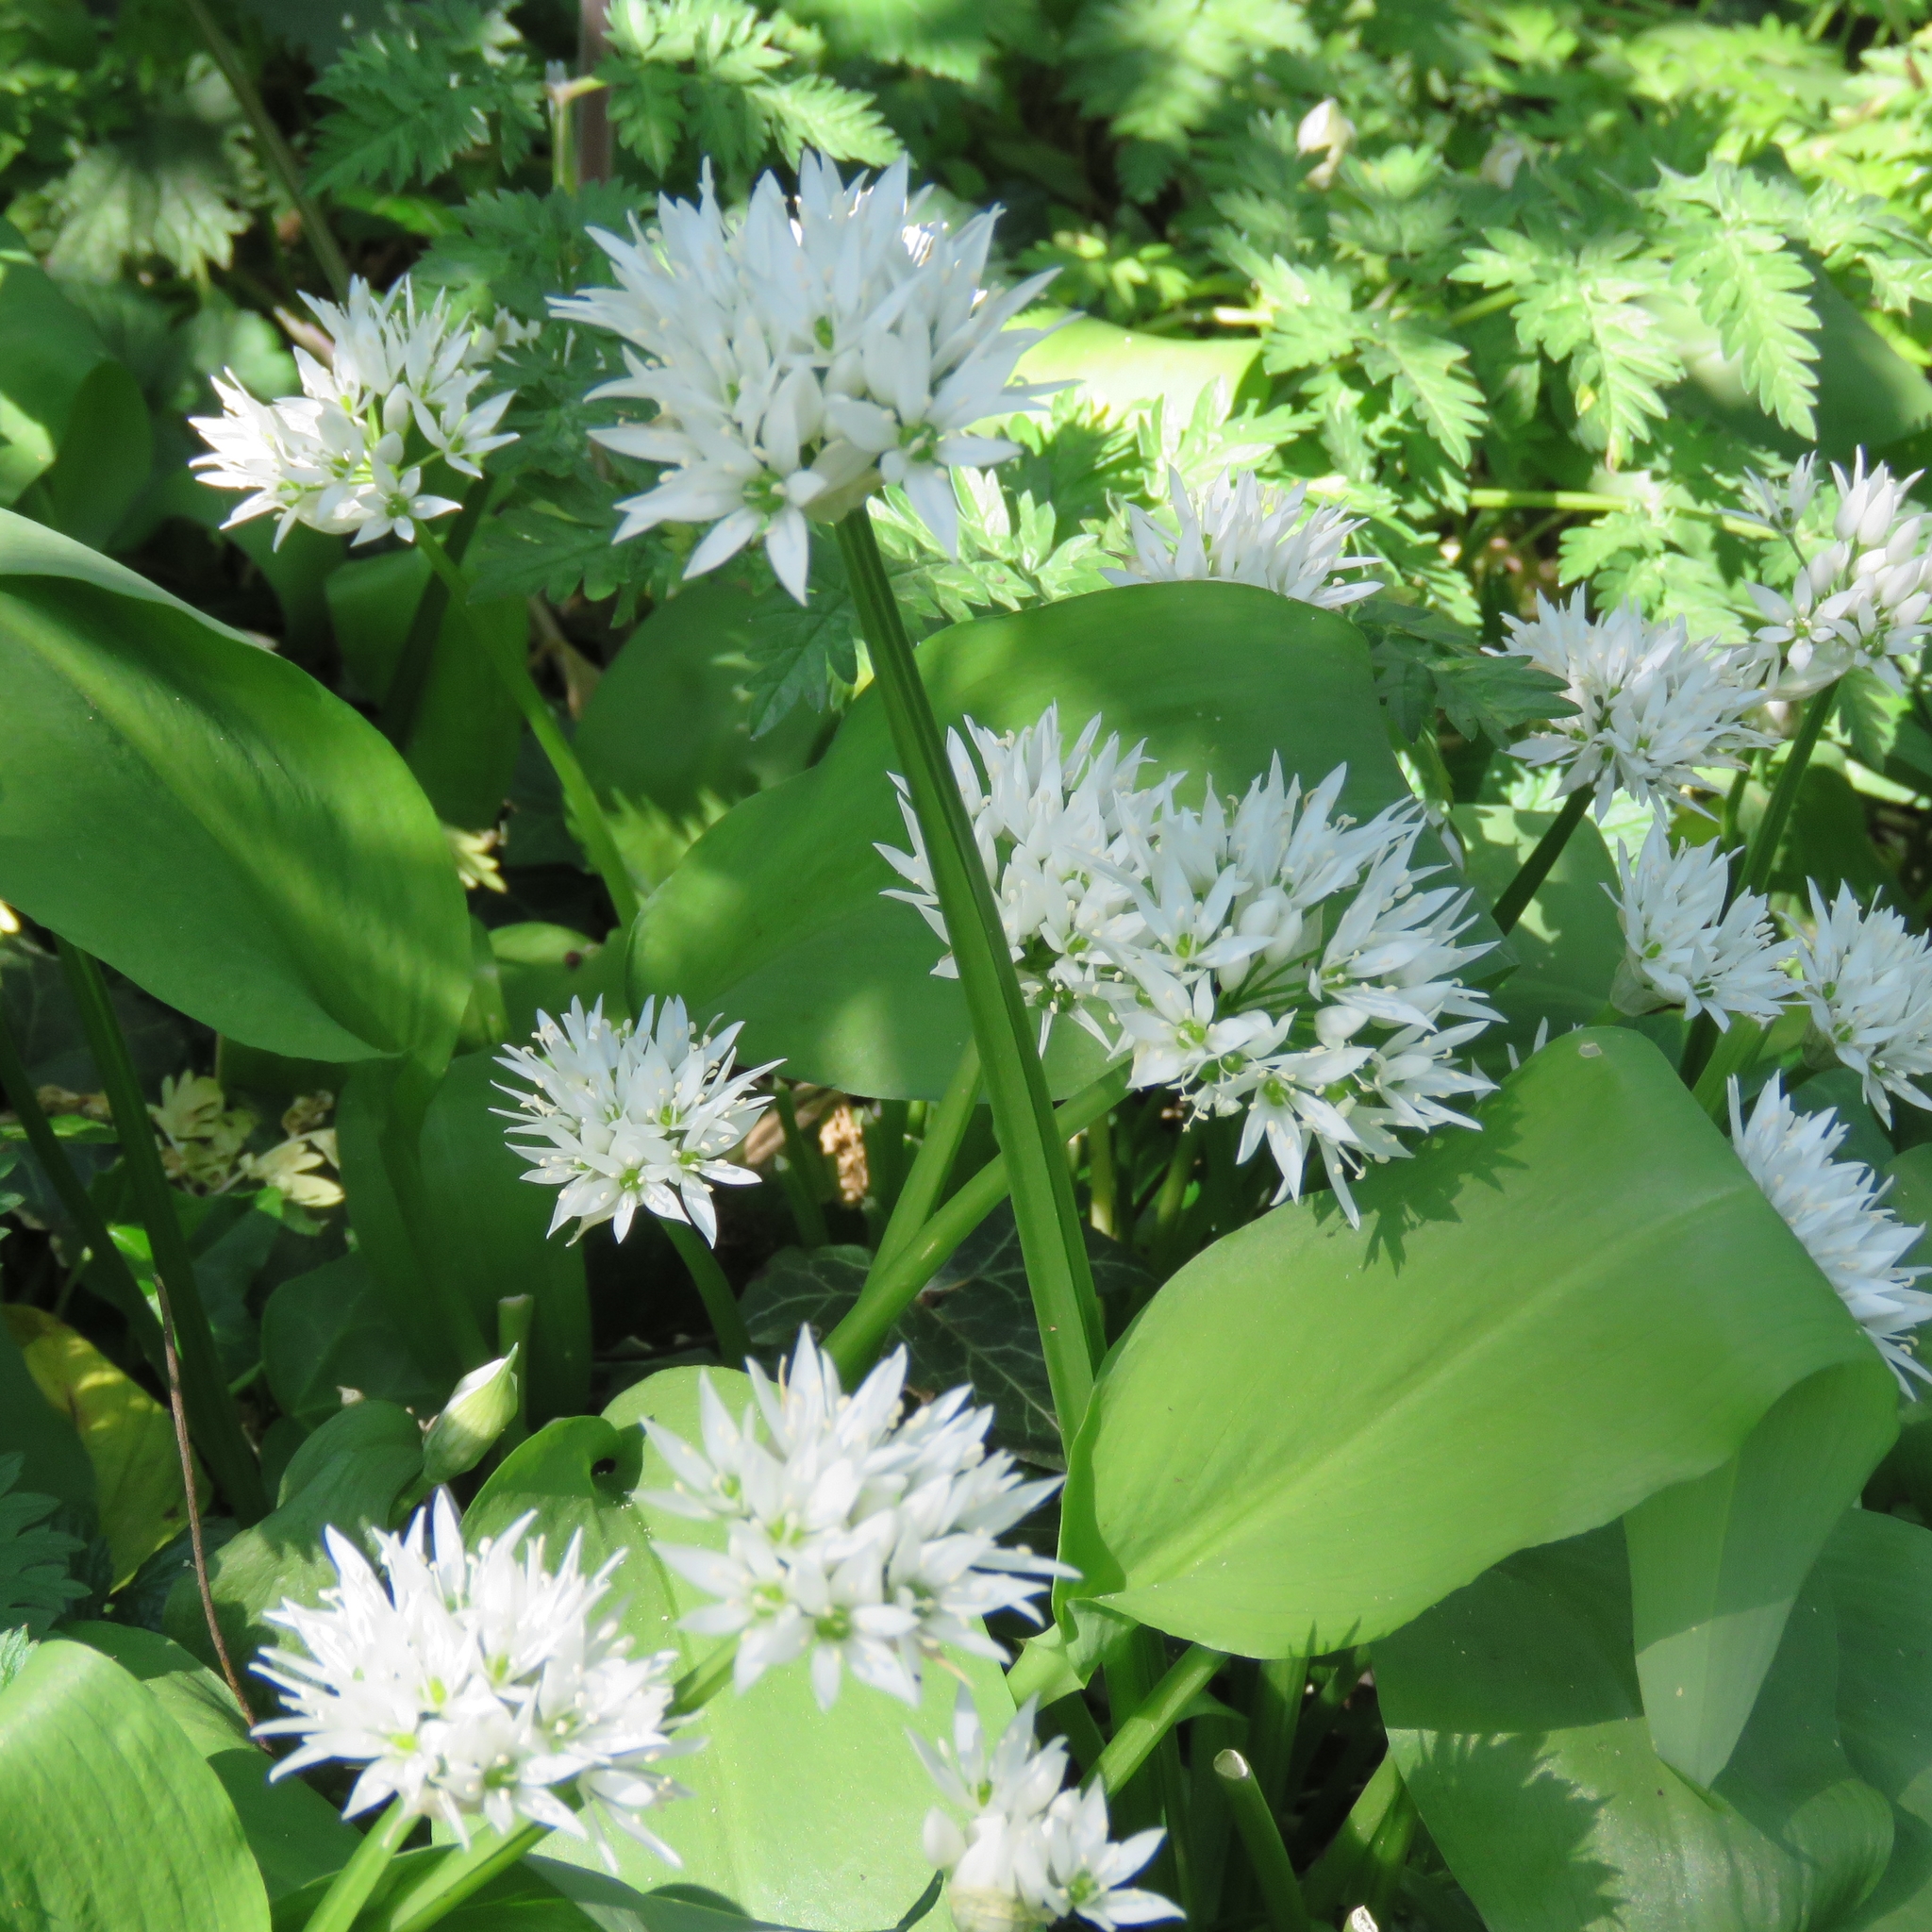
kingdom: Plantae
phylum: Tracheophyta
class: Liliopsida
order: Asparagales
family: Amaryllidaceae
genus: Allium
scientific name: Allium ursinum
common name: Ramsons
